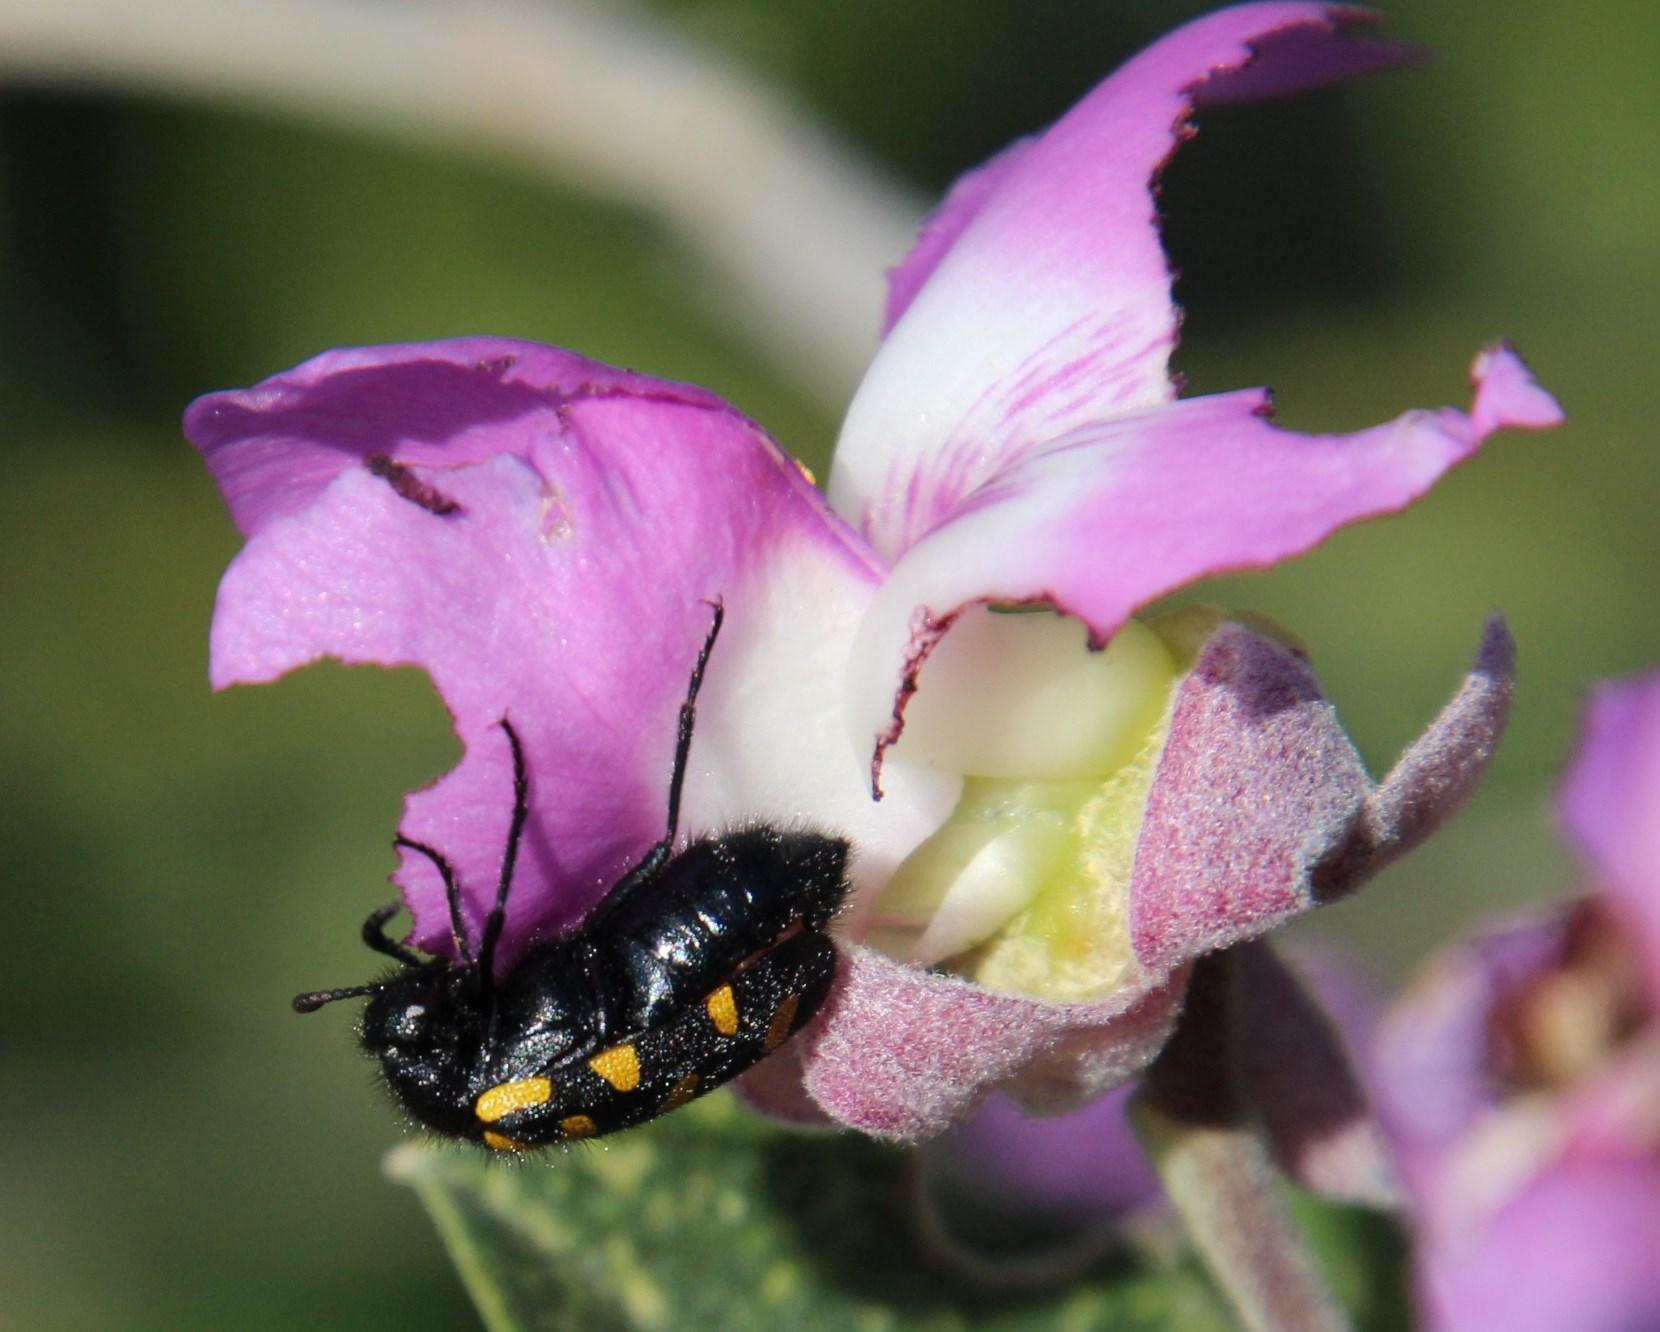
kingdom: Animalia
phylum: Arthropoda
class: Insecta
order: Coleoptera
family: Meloidae
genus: Ceroctis
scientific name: Ceroctis capensis
